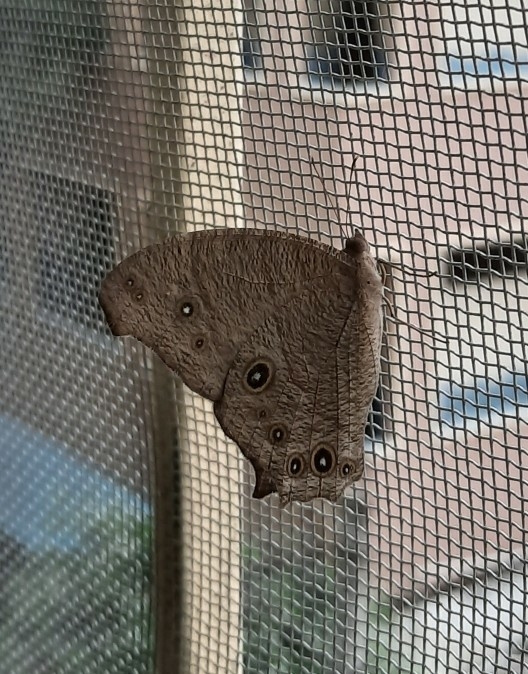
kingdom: Animalia
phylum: Arthropoda
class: Insecta
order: Lepidoptera
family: Nymphalidae
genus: Melanitis
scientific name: Melanitis leda
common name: Twilight brown
